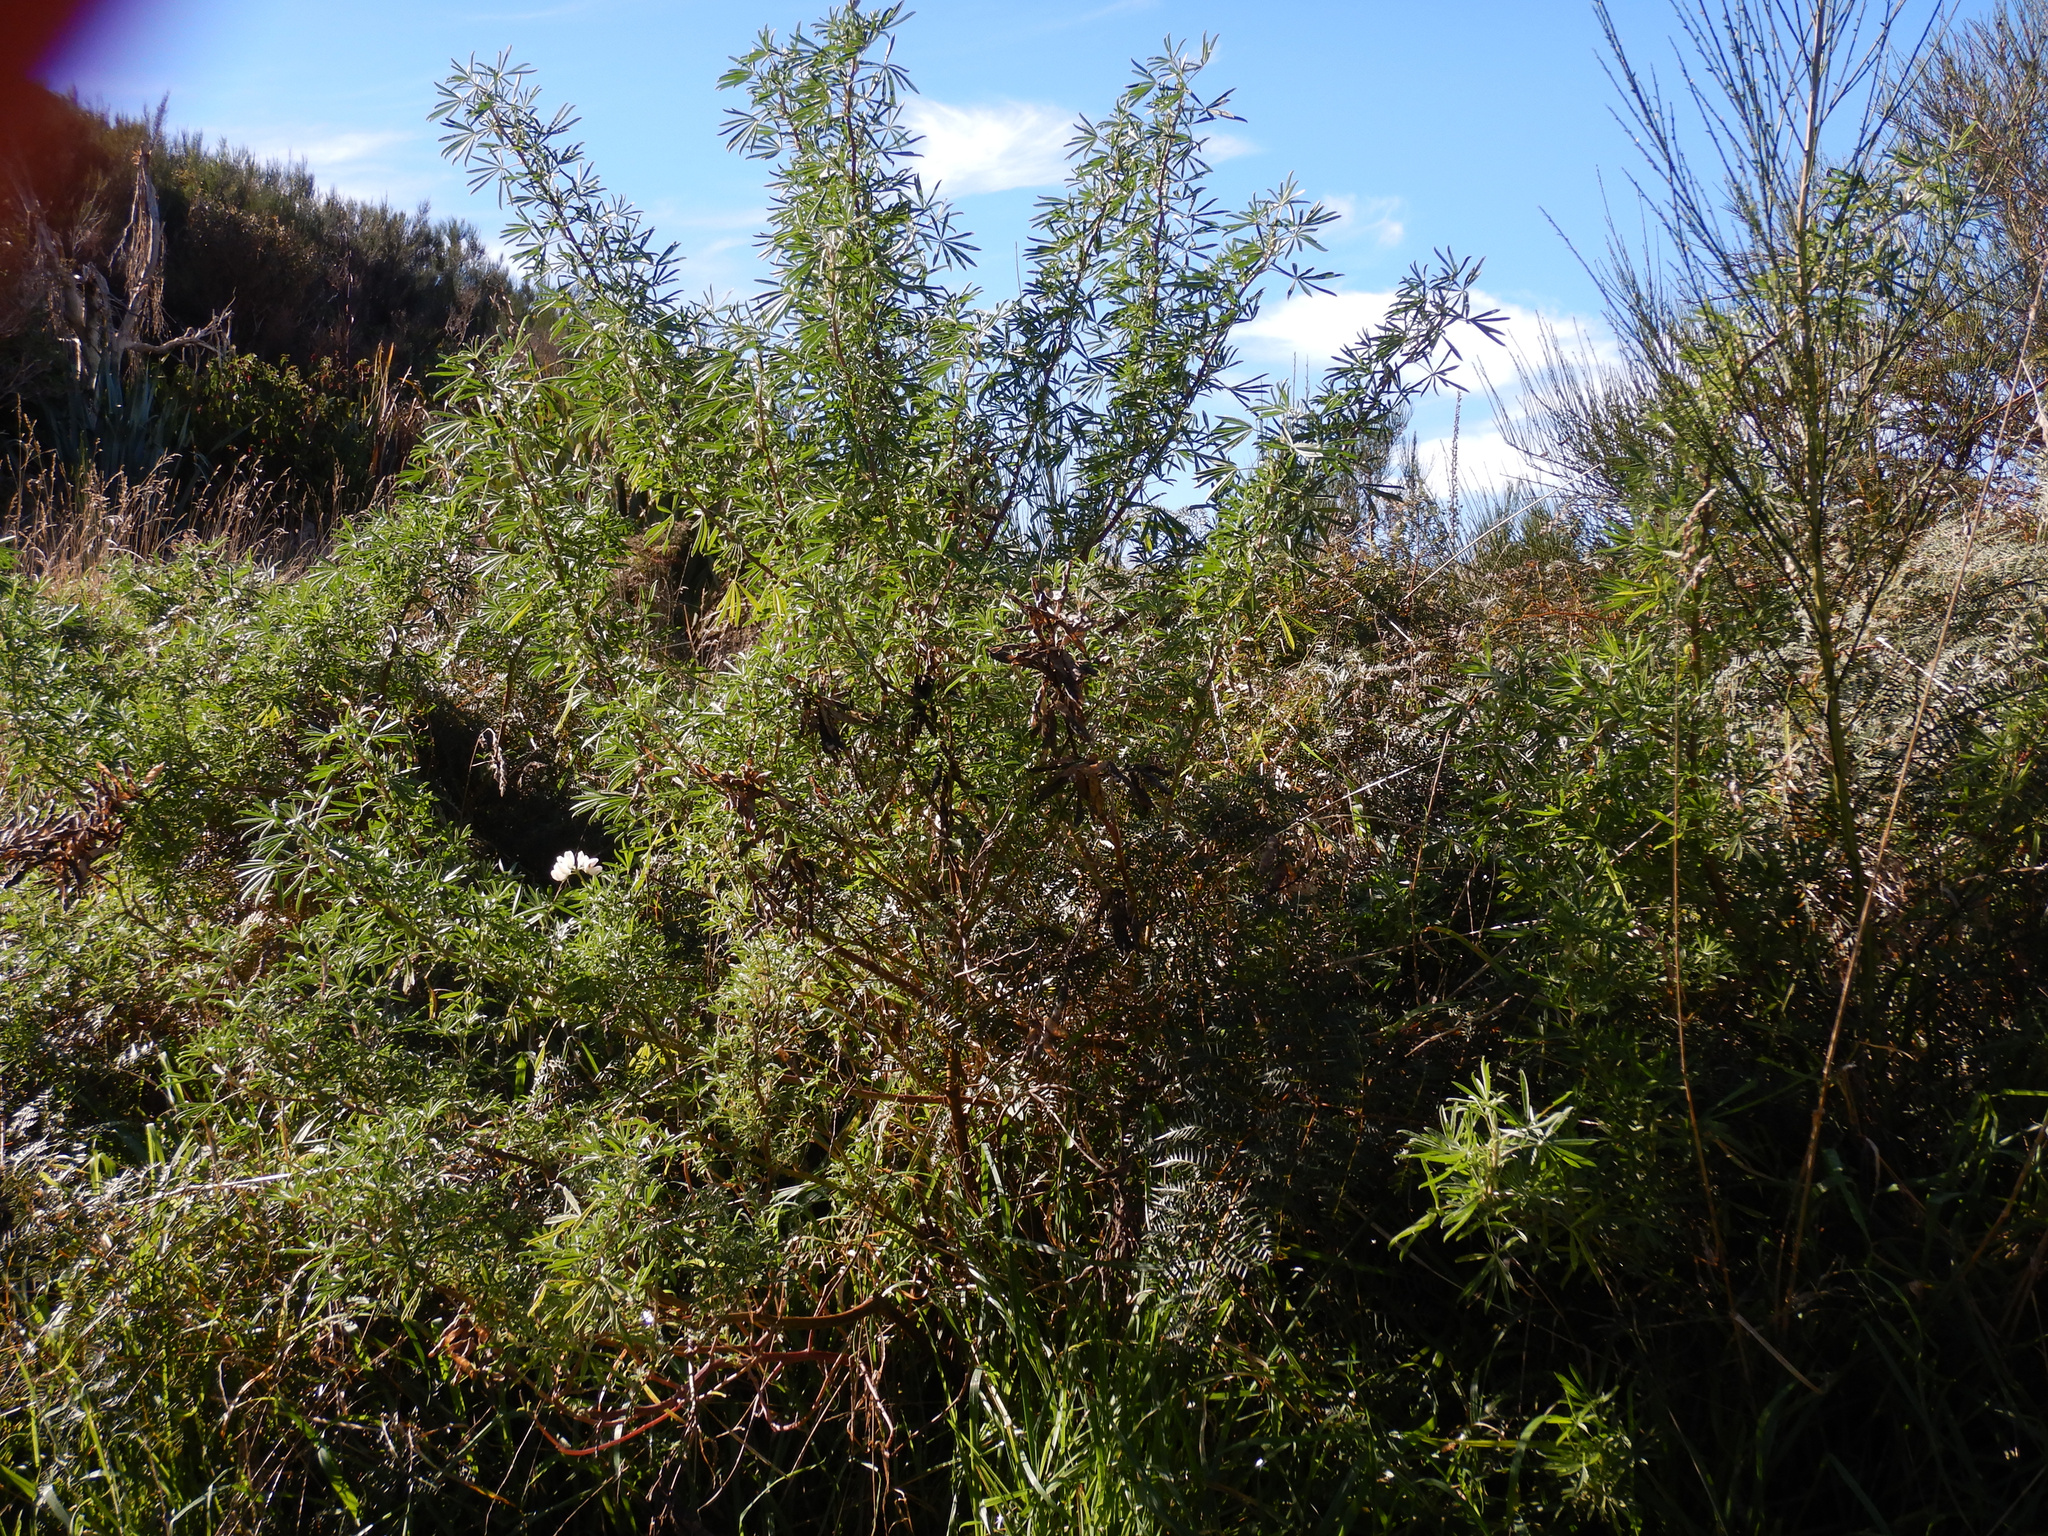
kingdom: Plantae
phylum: Tracheophyta
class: Magnoliopsida
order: Fabales
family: Fabaceae
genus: Lupinus
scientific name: Lupinus arboreus
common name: Yellow bush lupine
